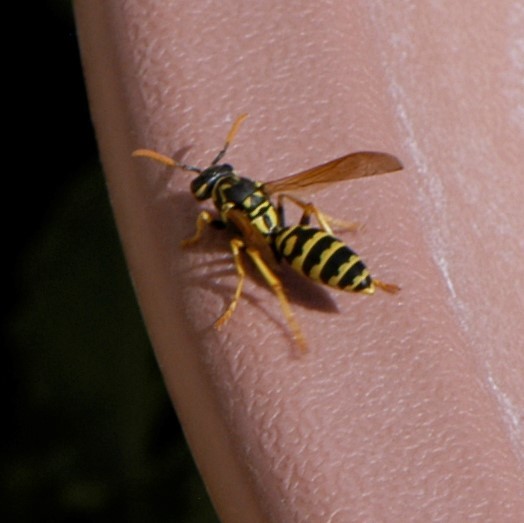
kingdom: Animalia
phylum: Arthropoda
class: Insecta
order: Hymenoptera
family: Eumenidae
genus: Polistes
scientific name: Polistes dominula
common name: Paper wasp
